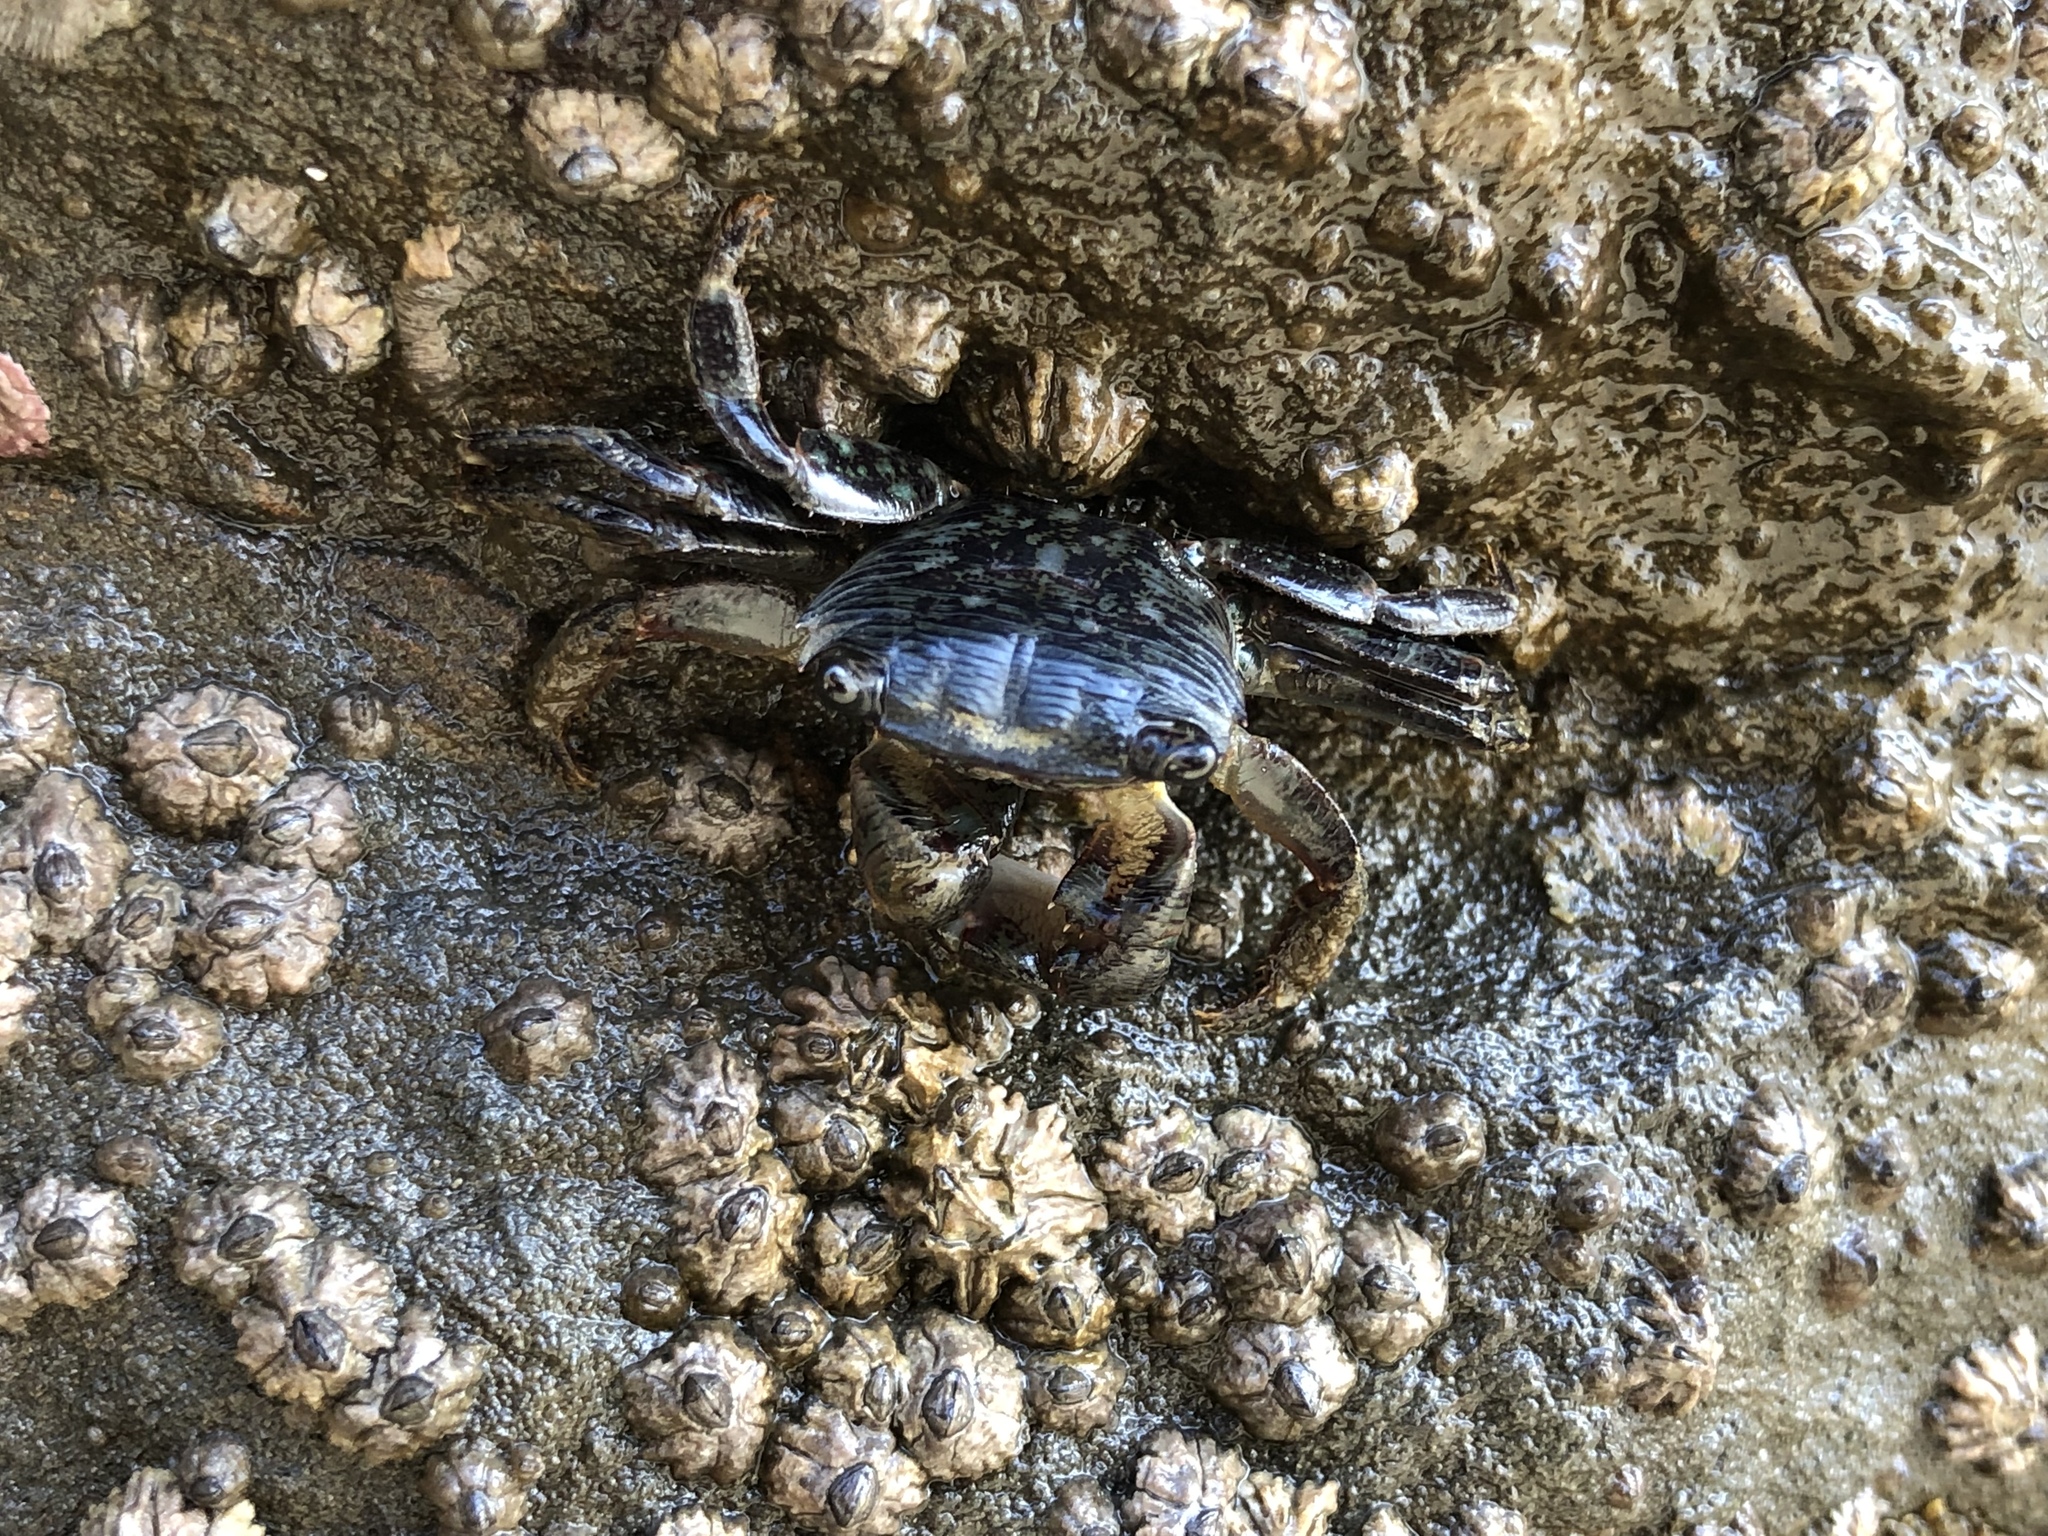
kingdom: Animalia
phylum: Arthropoda
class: Malacostraca
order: Decapoda
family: Grapsidae
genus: Pachygrapsus
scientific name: Pachygrapsus crassipes
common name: Striped shore crab
